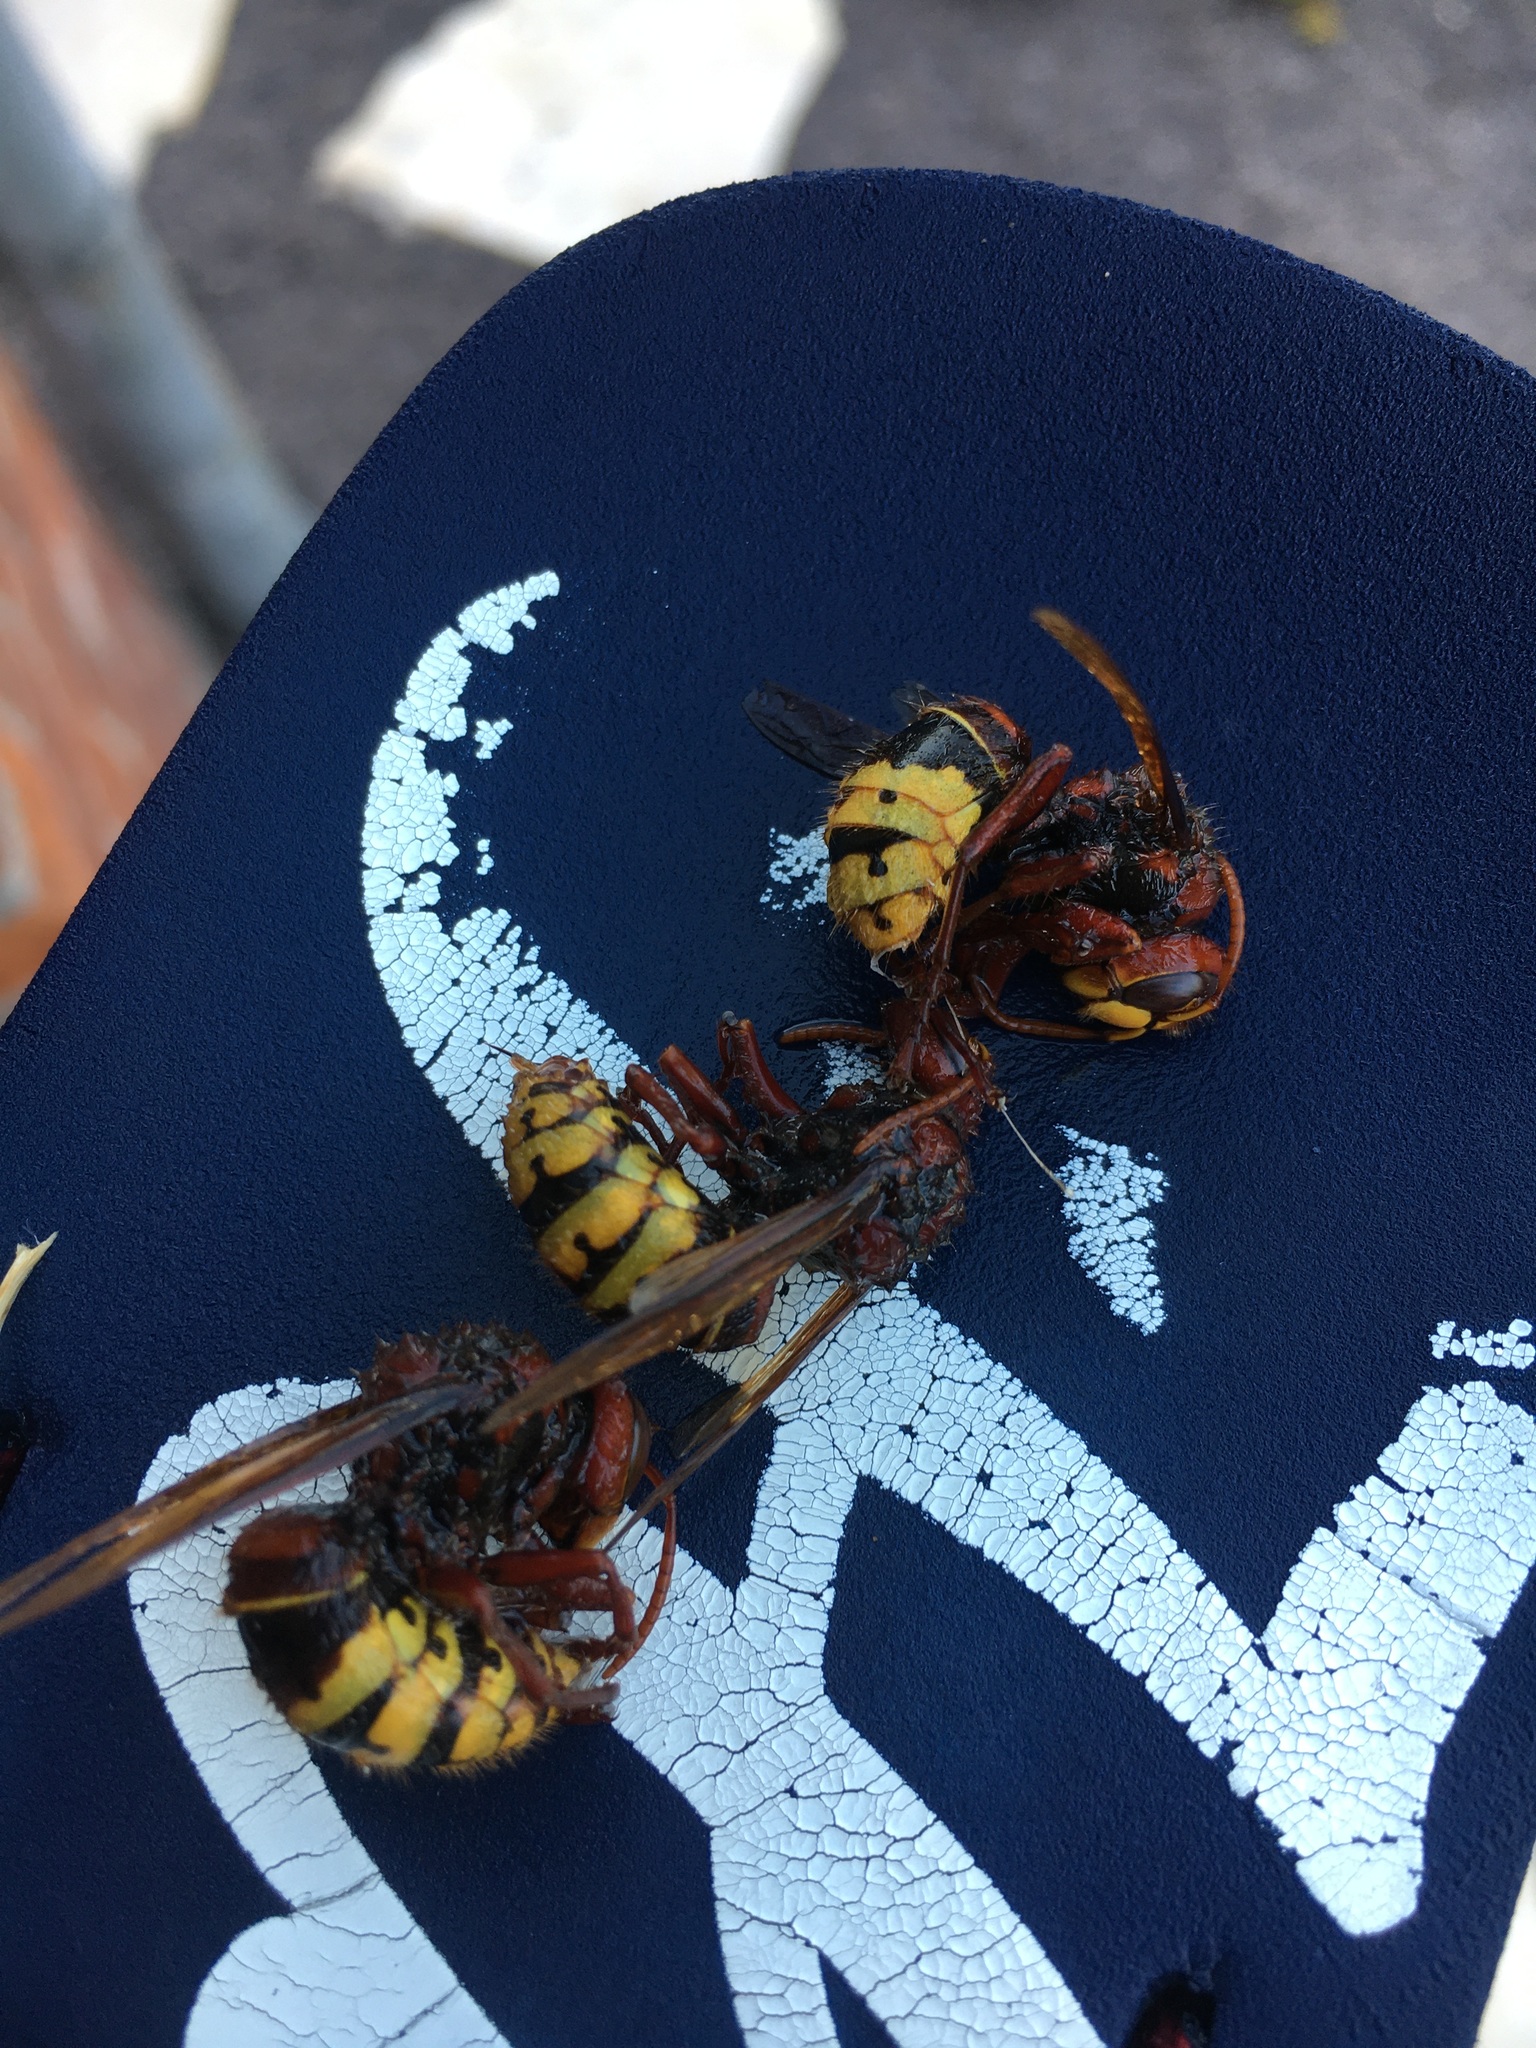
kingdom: Animalia
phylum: Arthropoda
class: Insecta
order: Hymenoptera
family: Vespidae
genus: Vespa
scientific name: Vespa crabro
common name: Hornet
